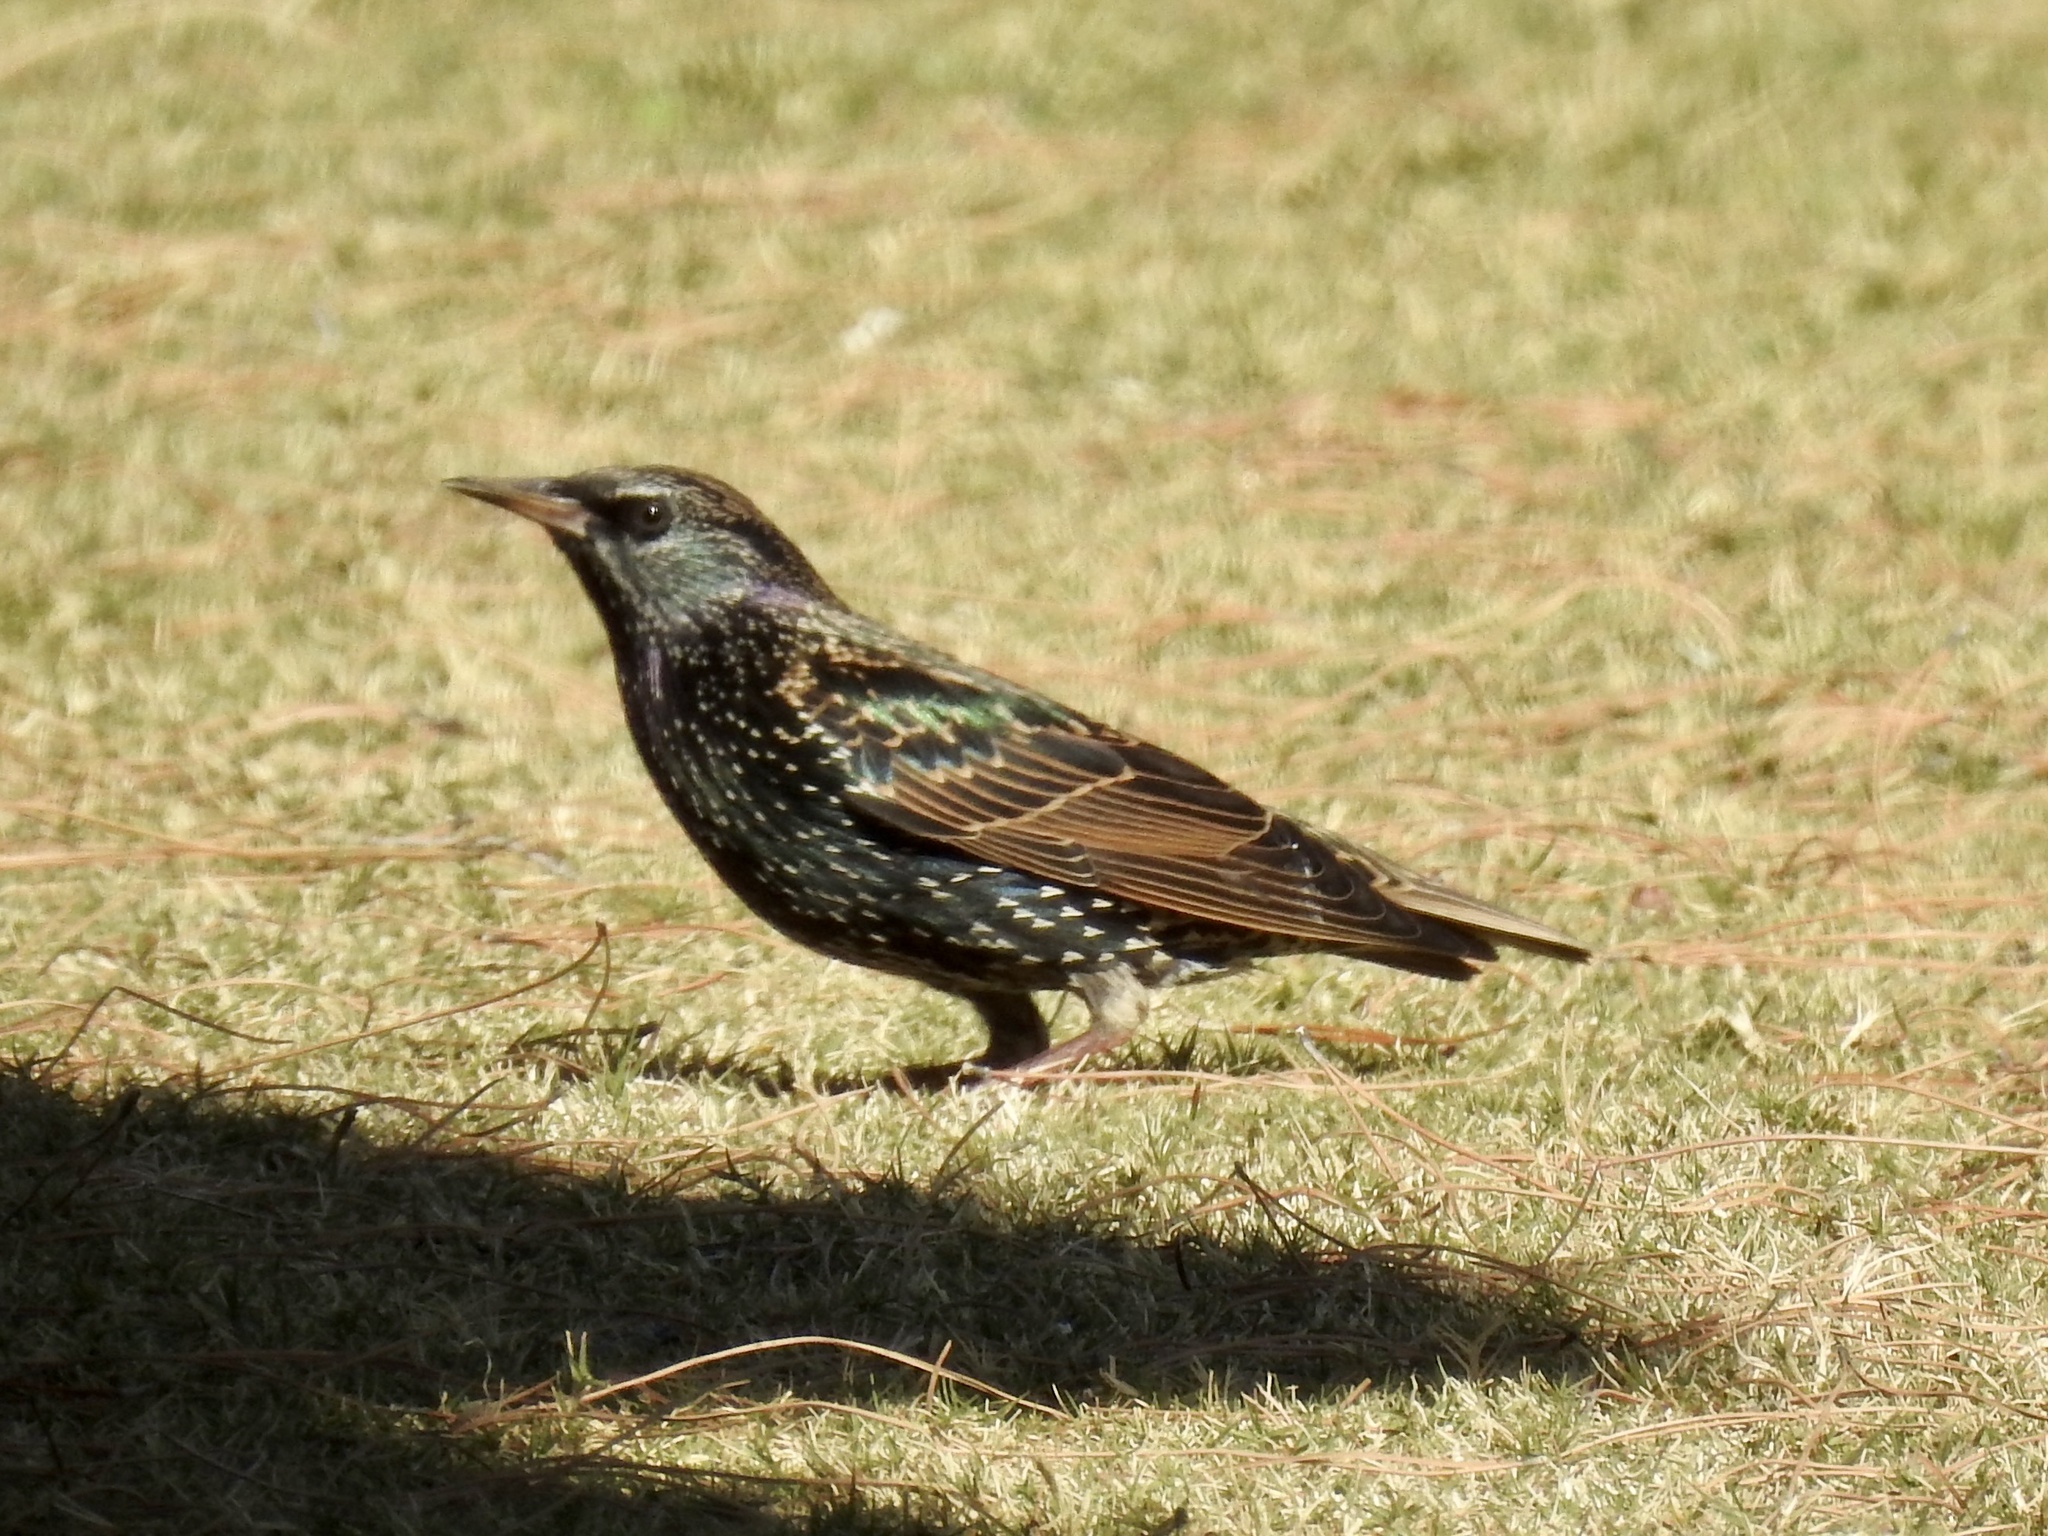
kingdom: Animalia
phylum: Chordata
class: Aves
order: Passeriformes
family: Sturnidae
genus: Sturnus
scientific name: Sturnus vulgaris
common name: Common starling
